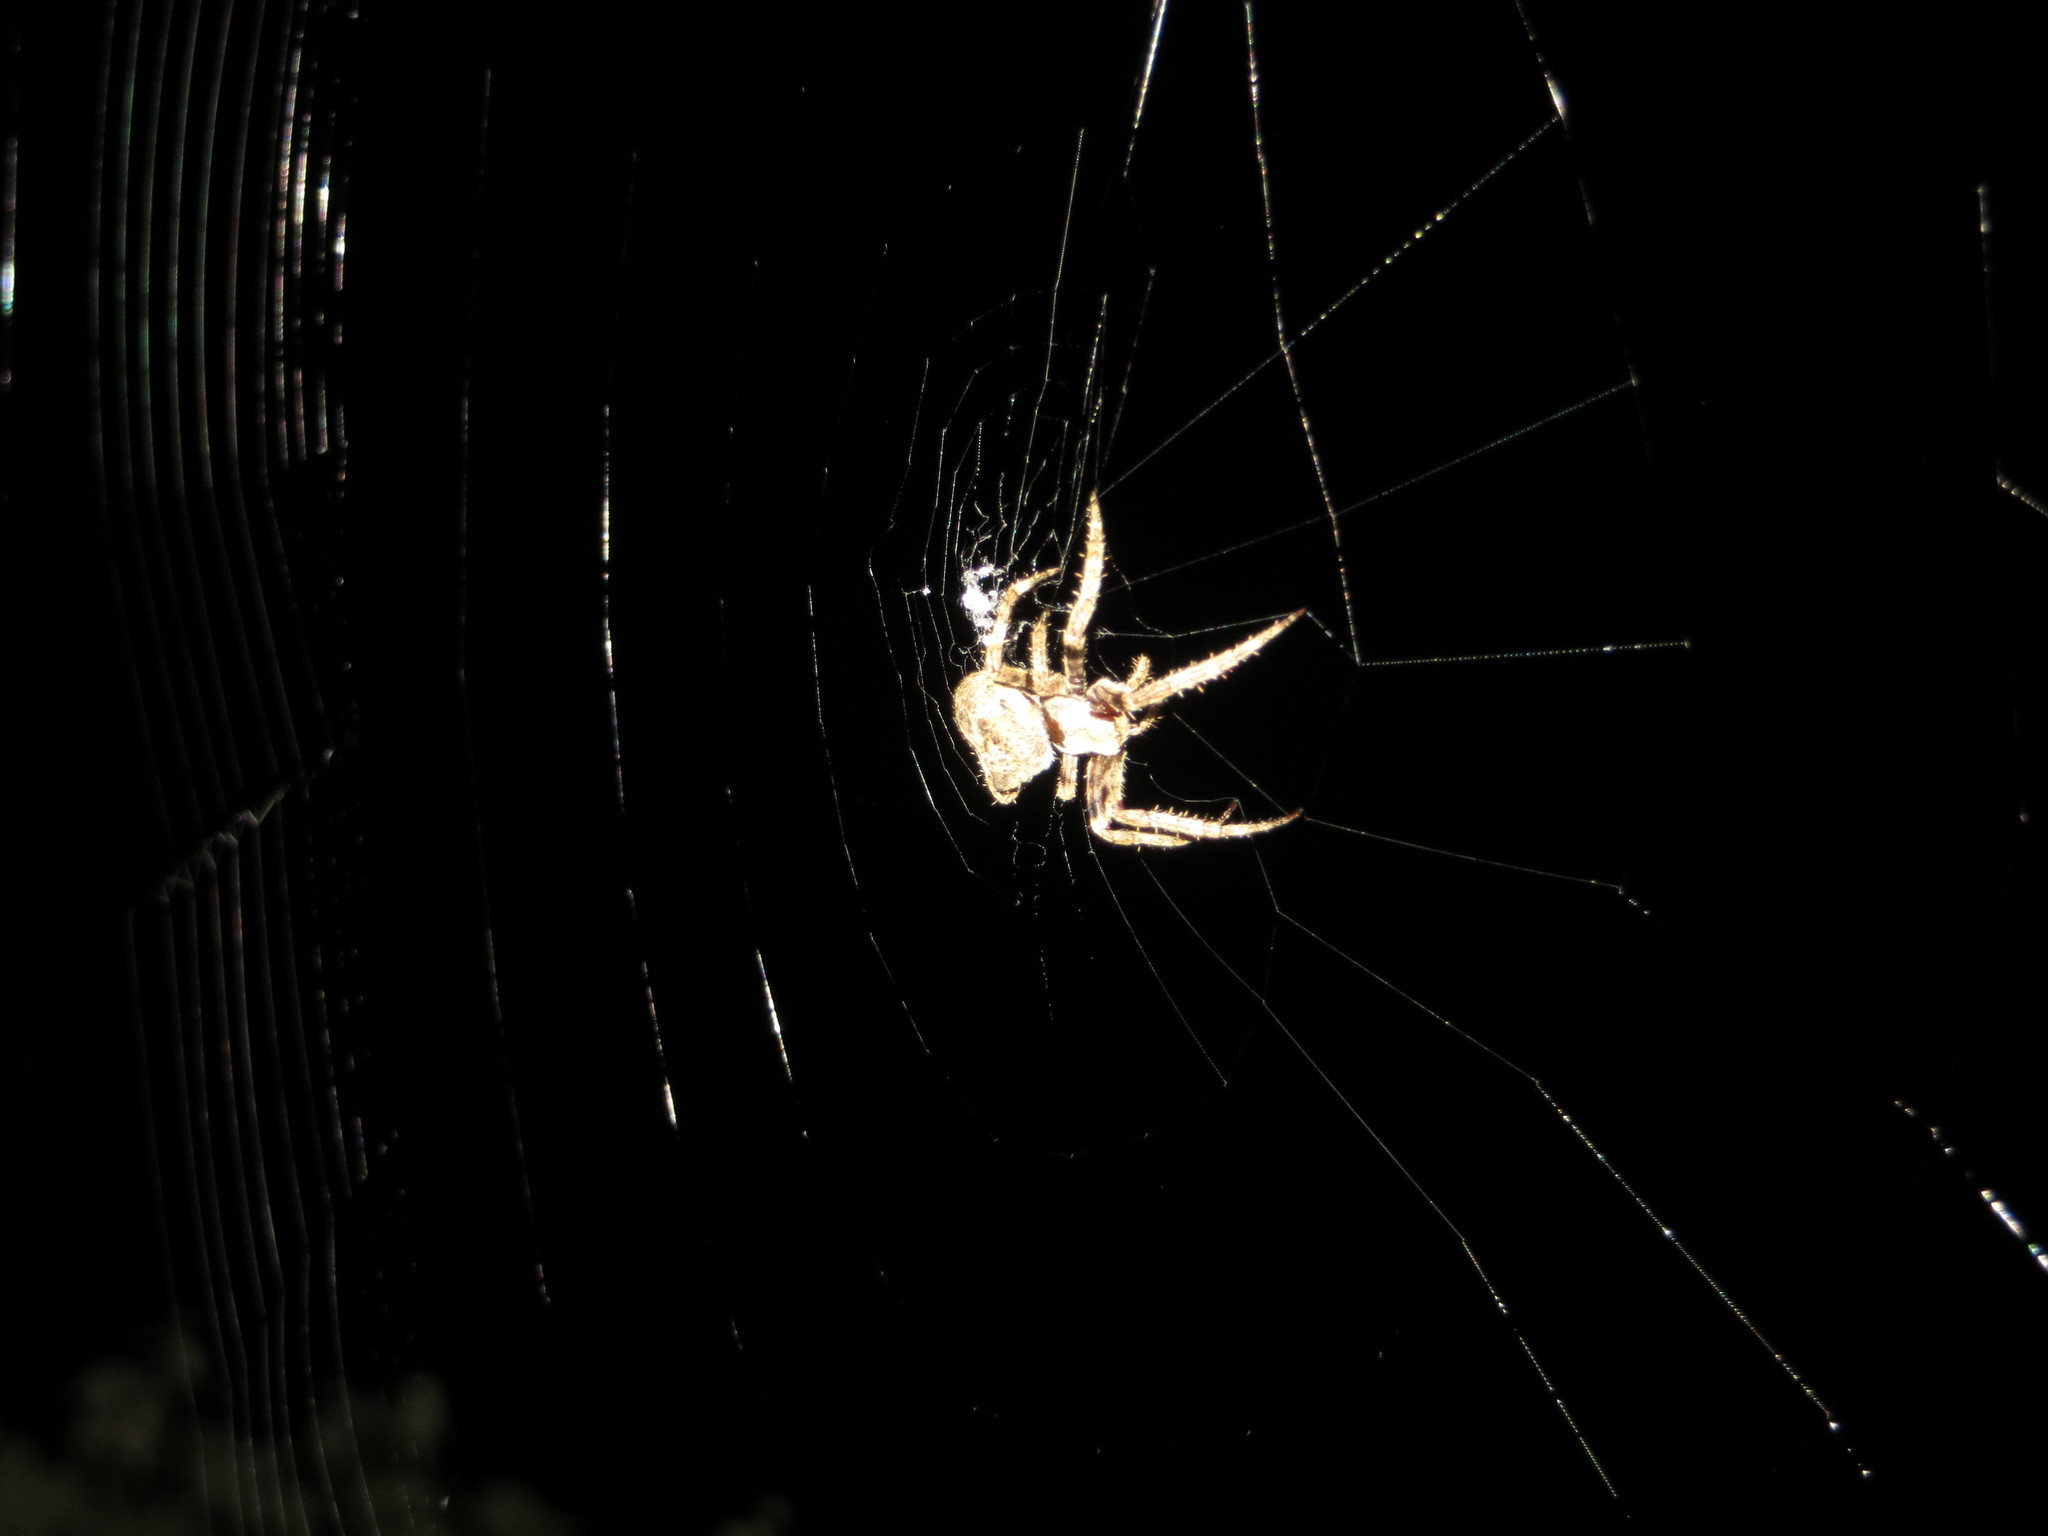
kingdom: Animalia
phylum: Arthropoda
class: Arachnida
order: Araneae
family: Araneidae
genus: Araneus
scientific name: Araneus angulatus
